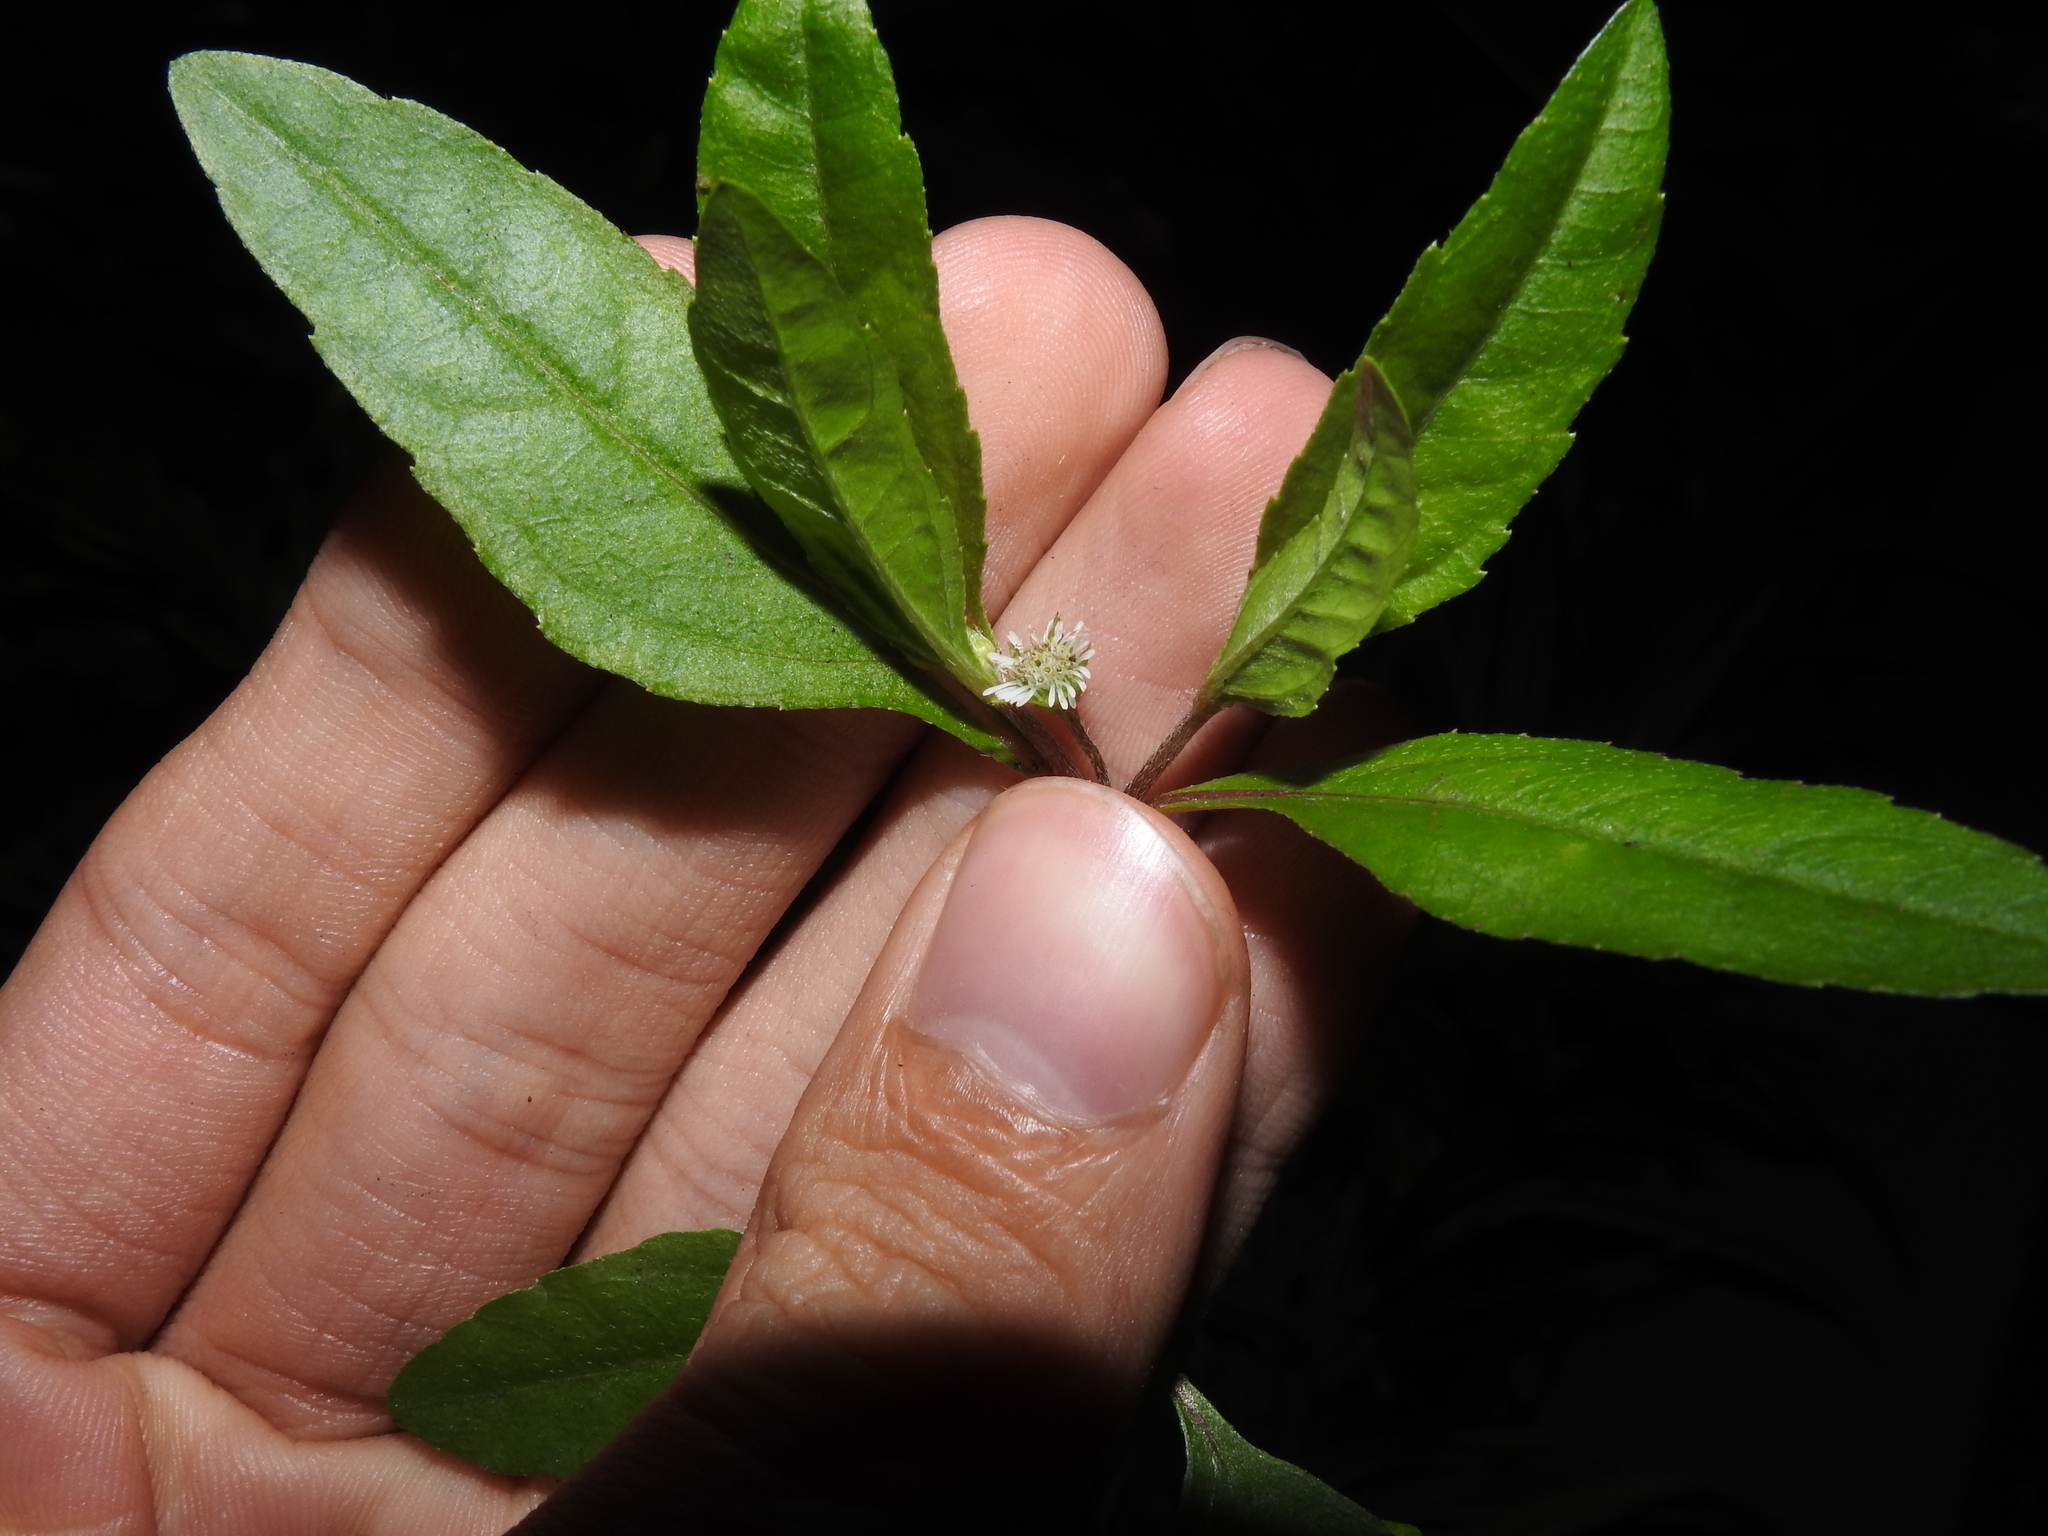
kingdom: Plantae
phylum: Tracheophyta
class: Magnoliopsida
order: Asterales
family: Asteraceae
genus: Eclipta
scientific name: Eclipta prostrata
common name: False daisy
